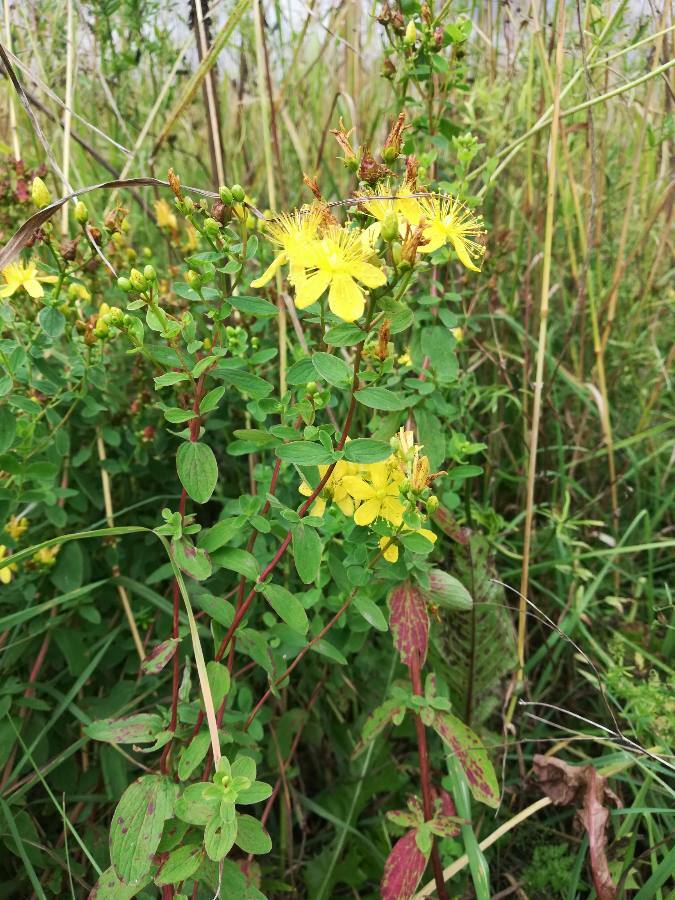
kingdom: Plantae
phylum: Tracheophyta
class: Magnoliopsida
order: Malpighiales
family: Hypericaceae
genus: Hypericum
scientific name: Hypericum maculatum
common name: Imperforate st. john's-wort
